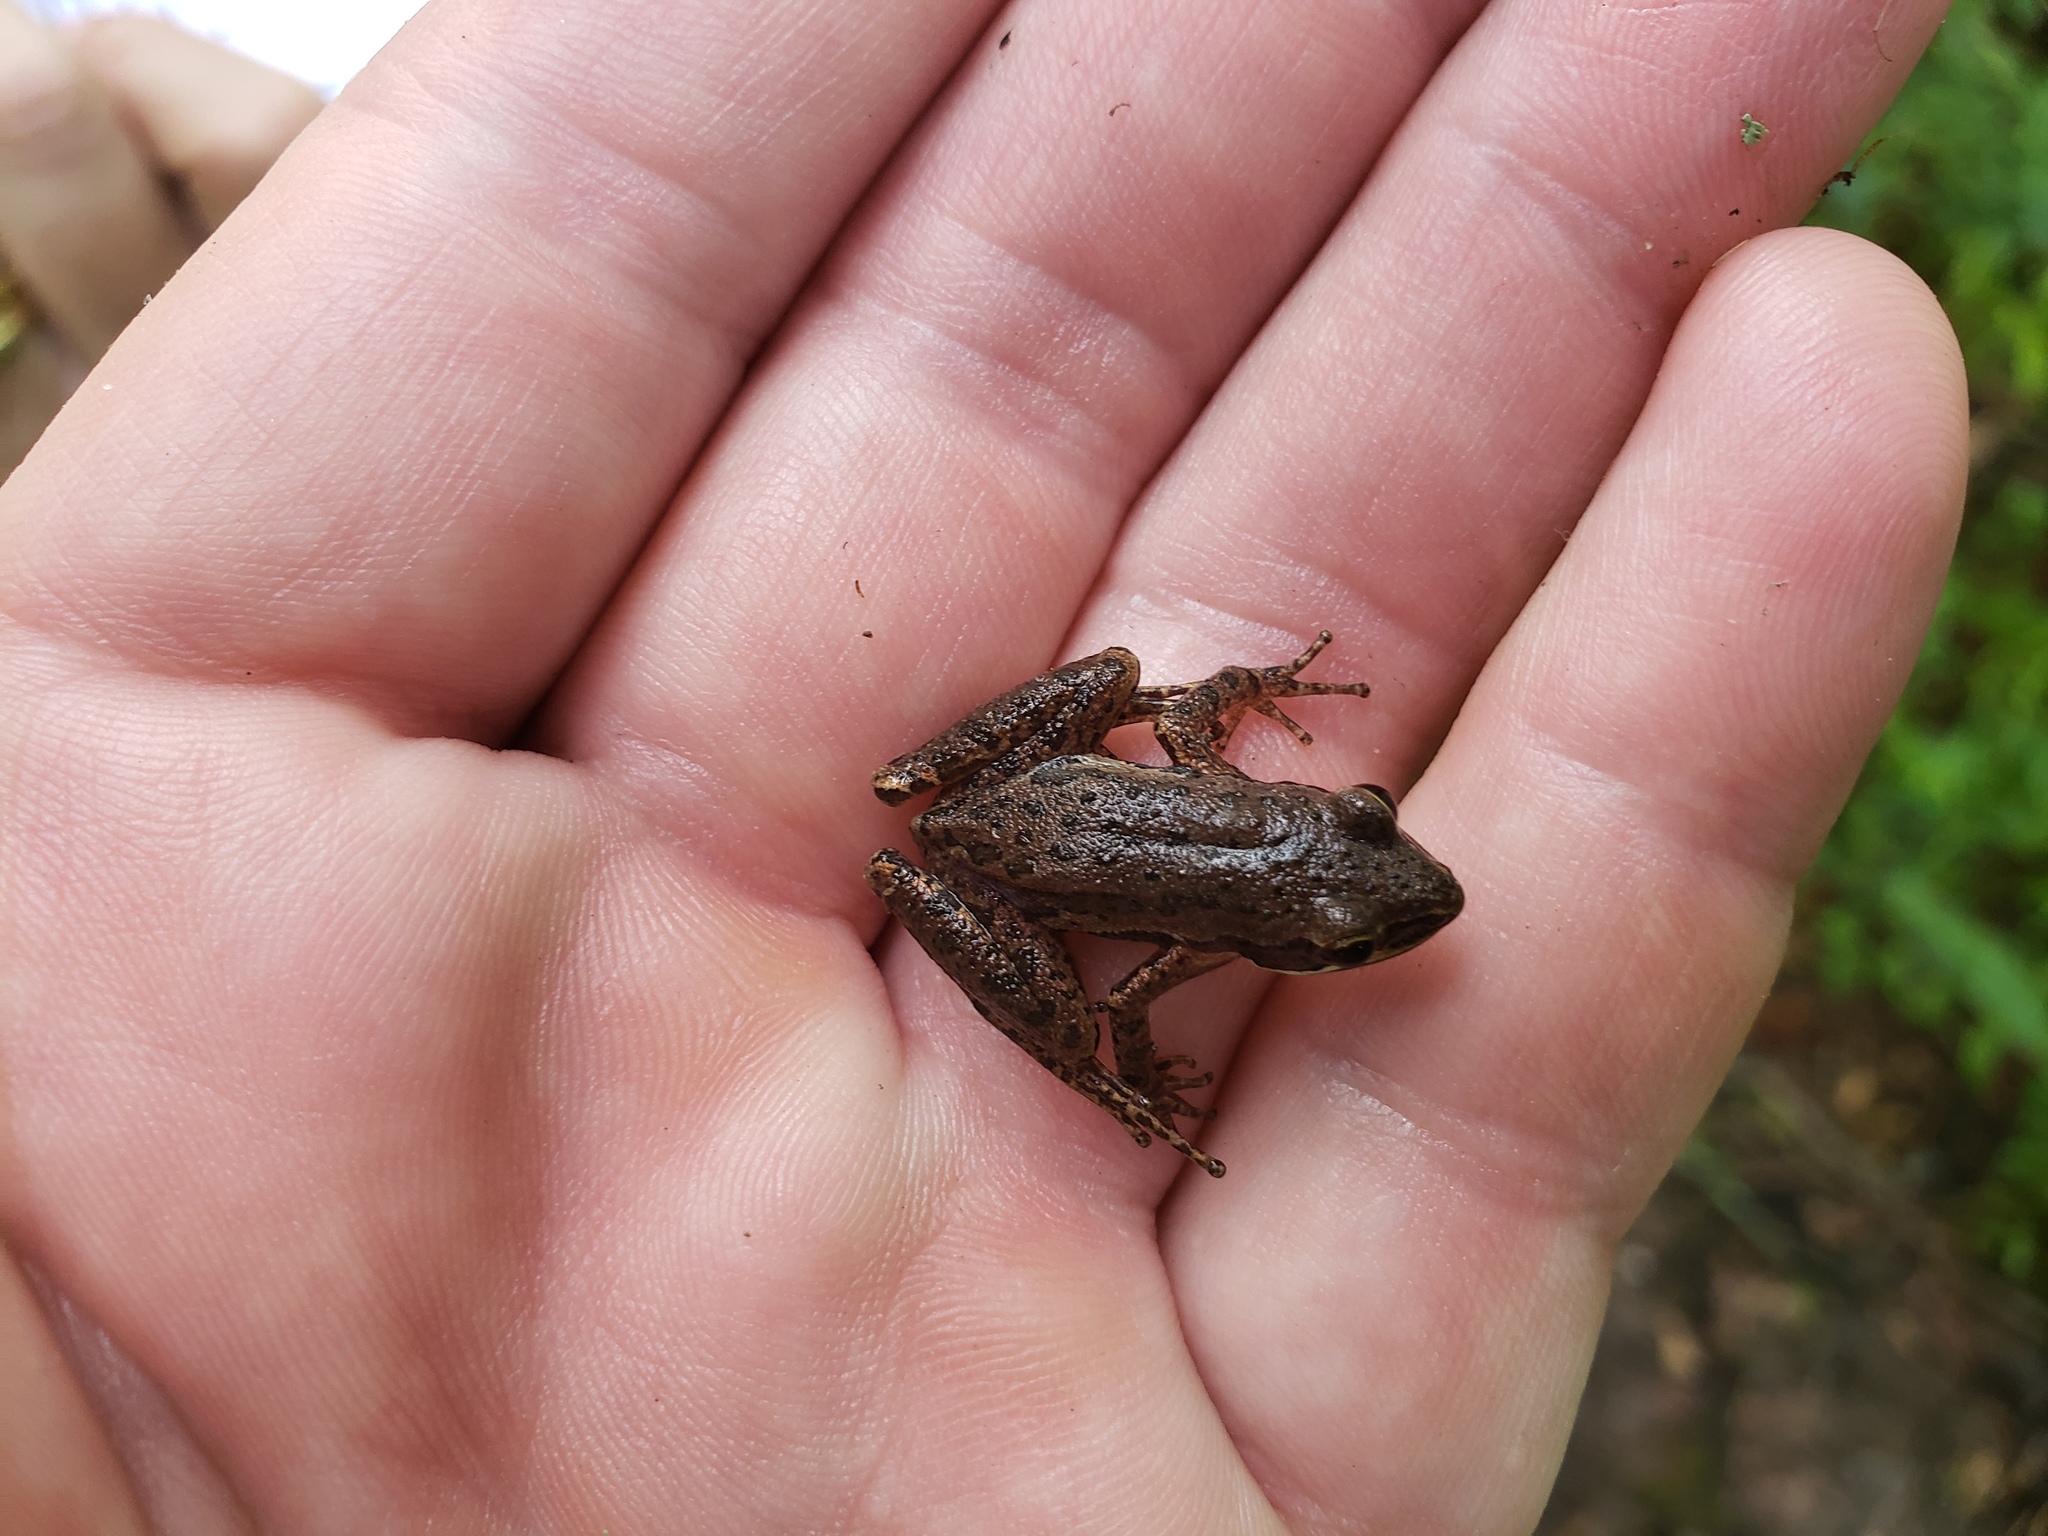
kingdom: Animalia
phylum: Chordata
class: Amphibia
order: Anura
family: Hylidae
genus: Pseudacris
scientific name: Pseudacris fouquettei
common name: Cajun chorus frog
